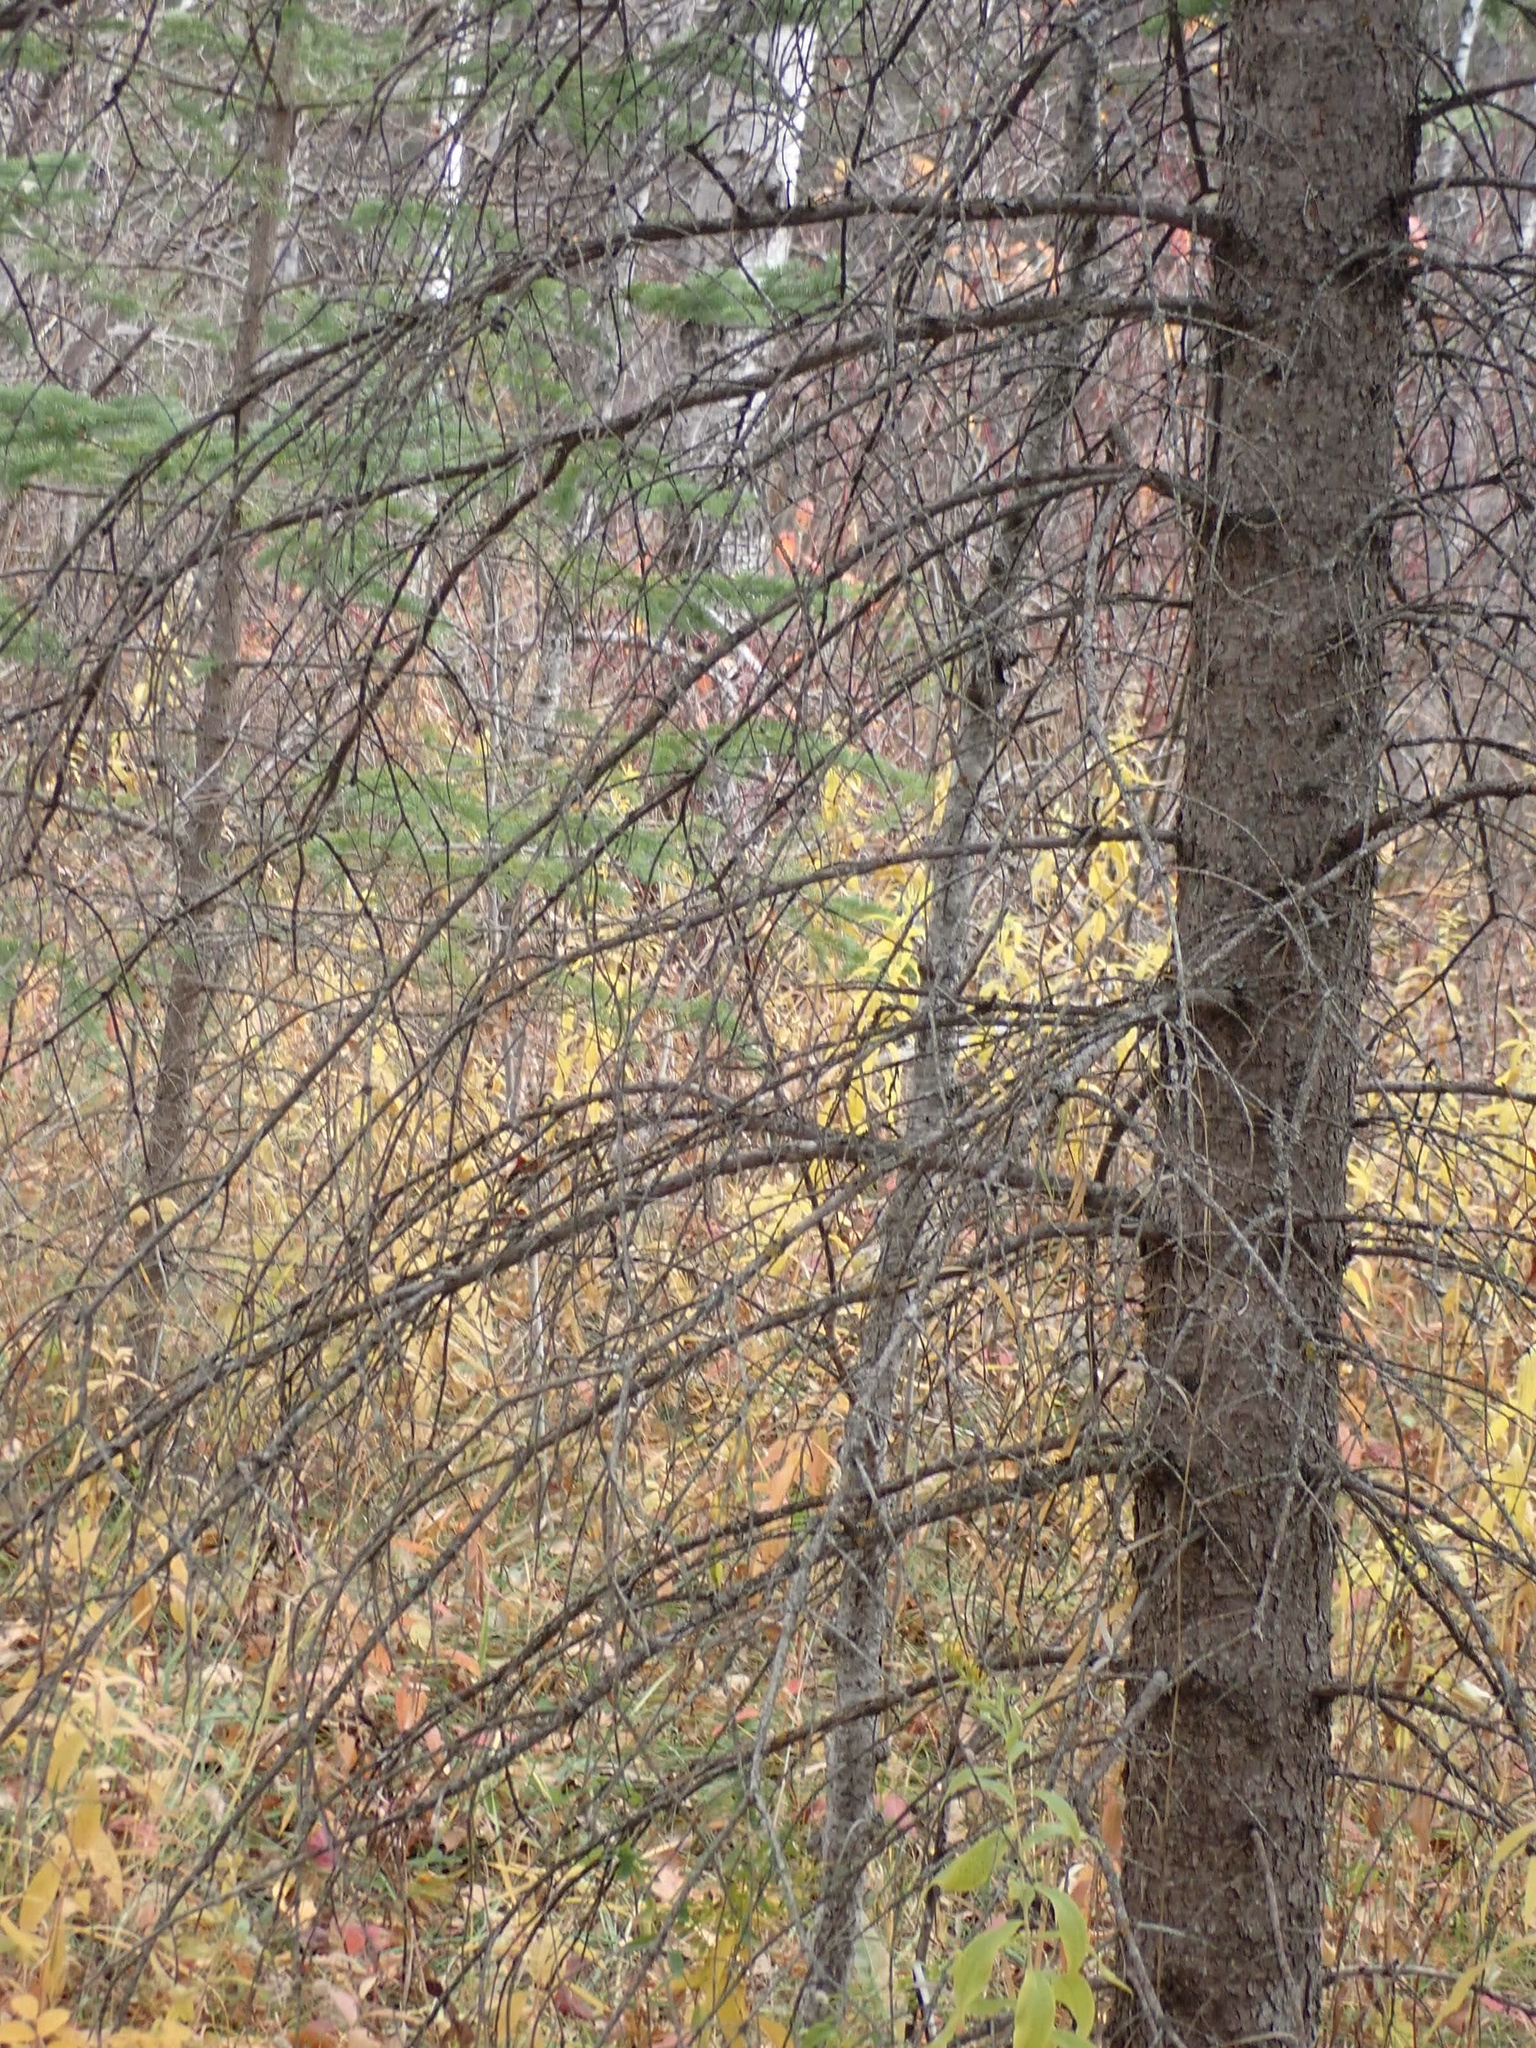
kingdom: Plantae
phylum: Tracheophyta
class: Pinopsida
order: Pinales
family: Pinaceae
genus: Picea
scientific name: Picea mariana
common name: Black spruce
